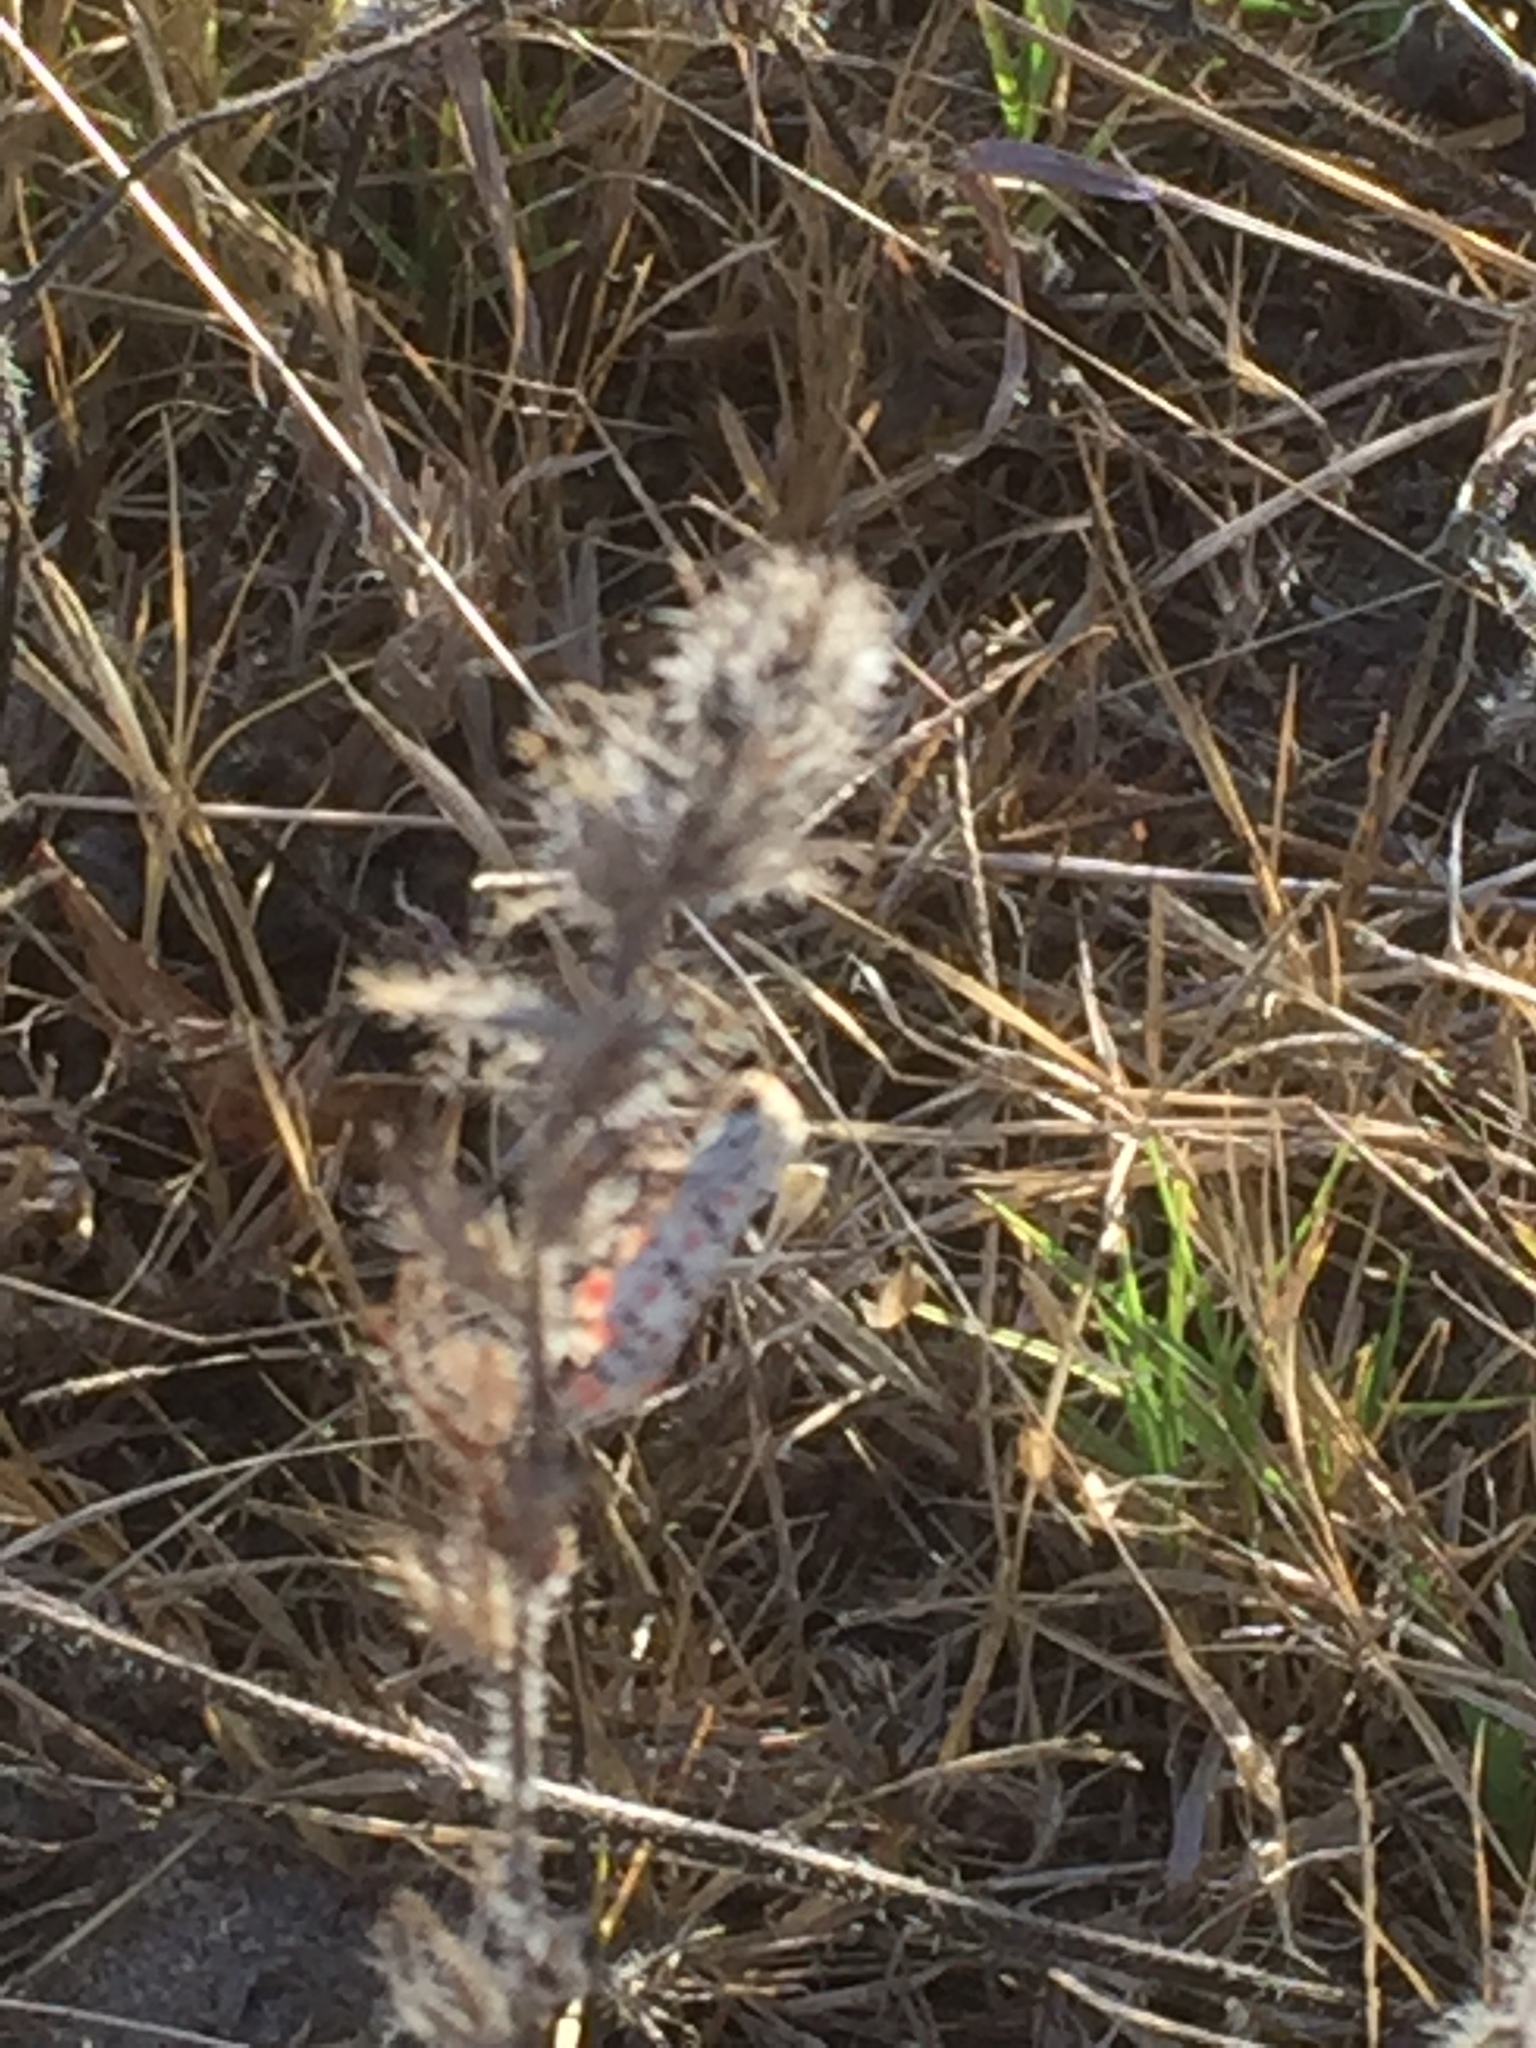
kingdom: Animalia
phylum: Arthropoda
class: Insecta
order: Lepidoptera
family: Erebidae
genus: Utetheisa
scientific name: Utetheisa pulchella
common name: Crimson speckled
